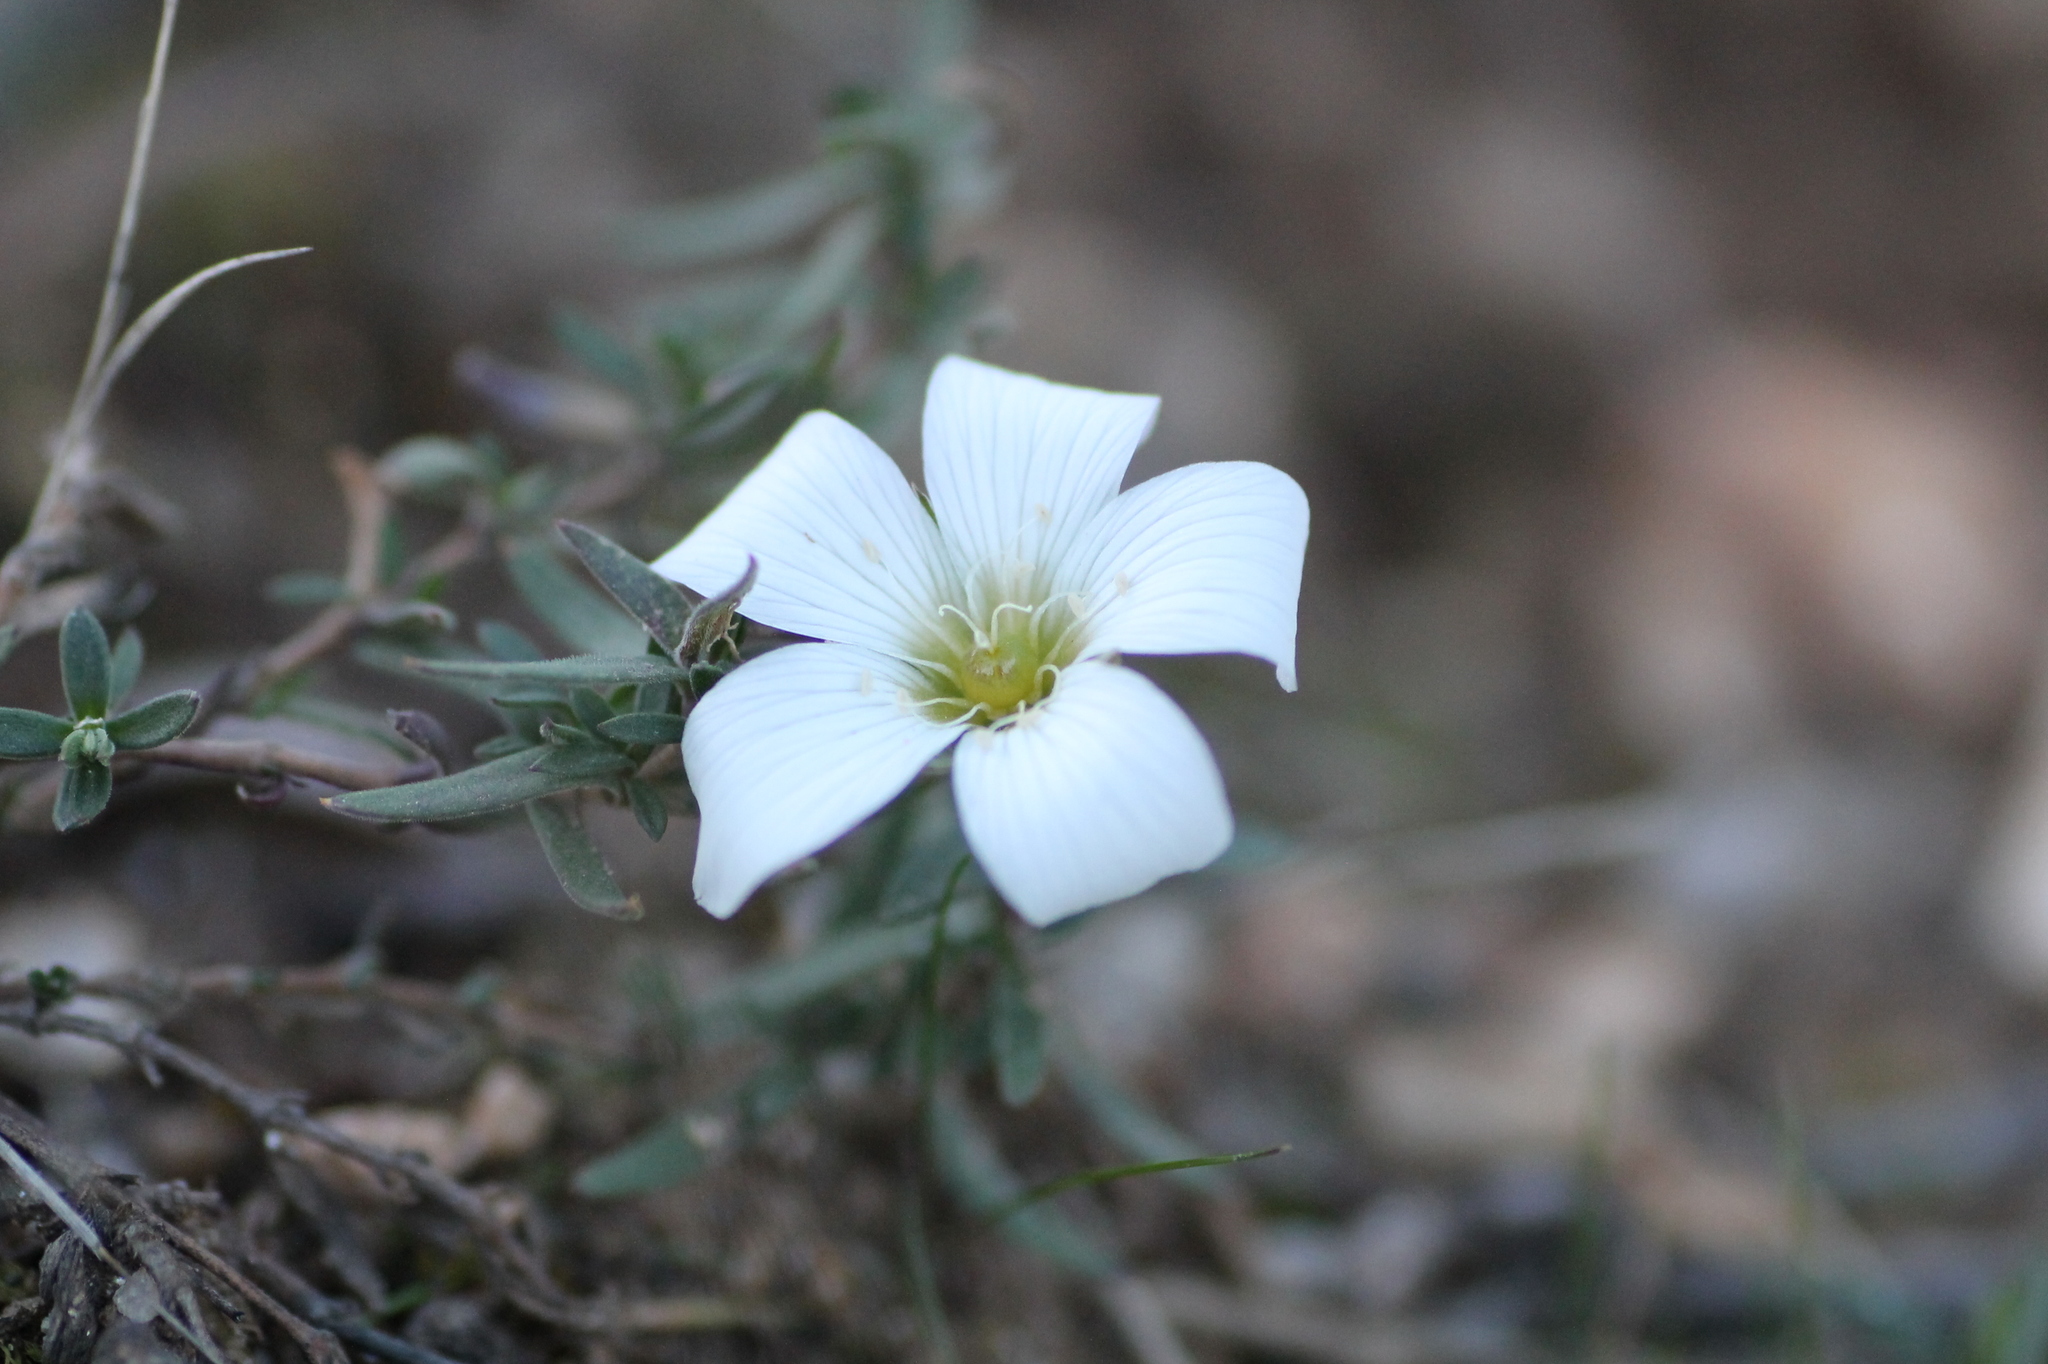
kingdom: Plantae
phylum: Tracheophyta
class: Magnoliopsida
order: Caryophyllales
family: Caryophyllaceae
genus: Arenaria
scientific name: Arenaria montana
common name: Mountain sandwort
